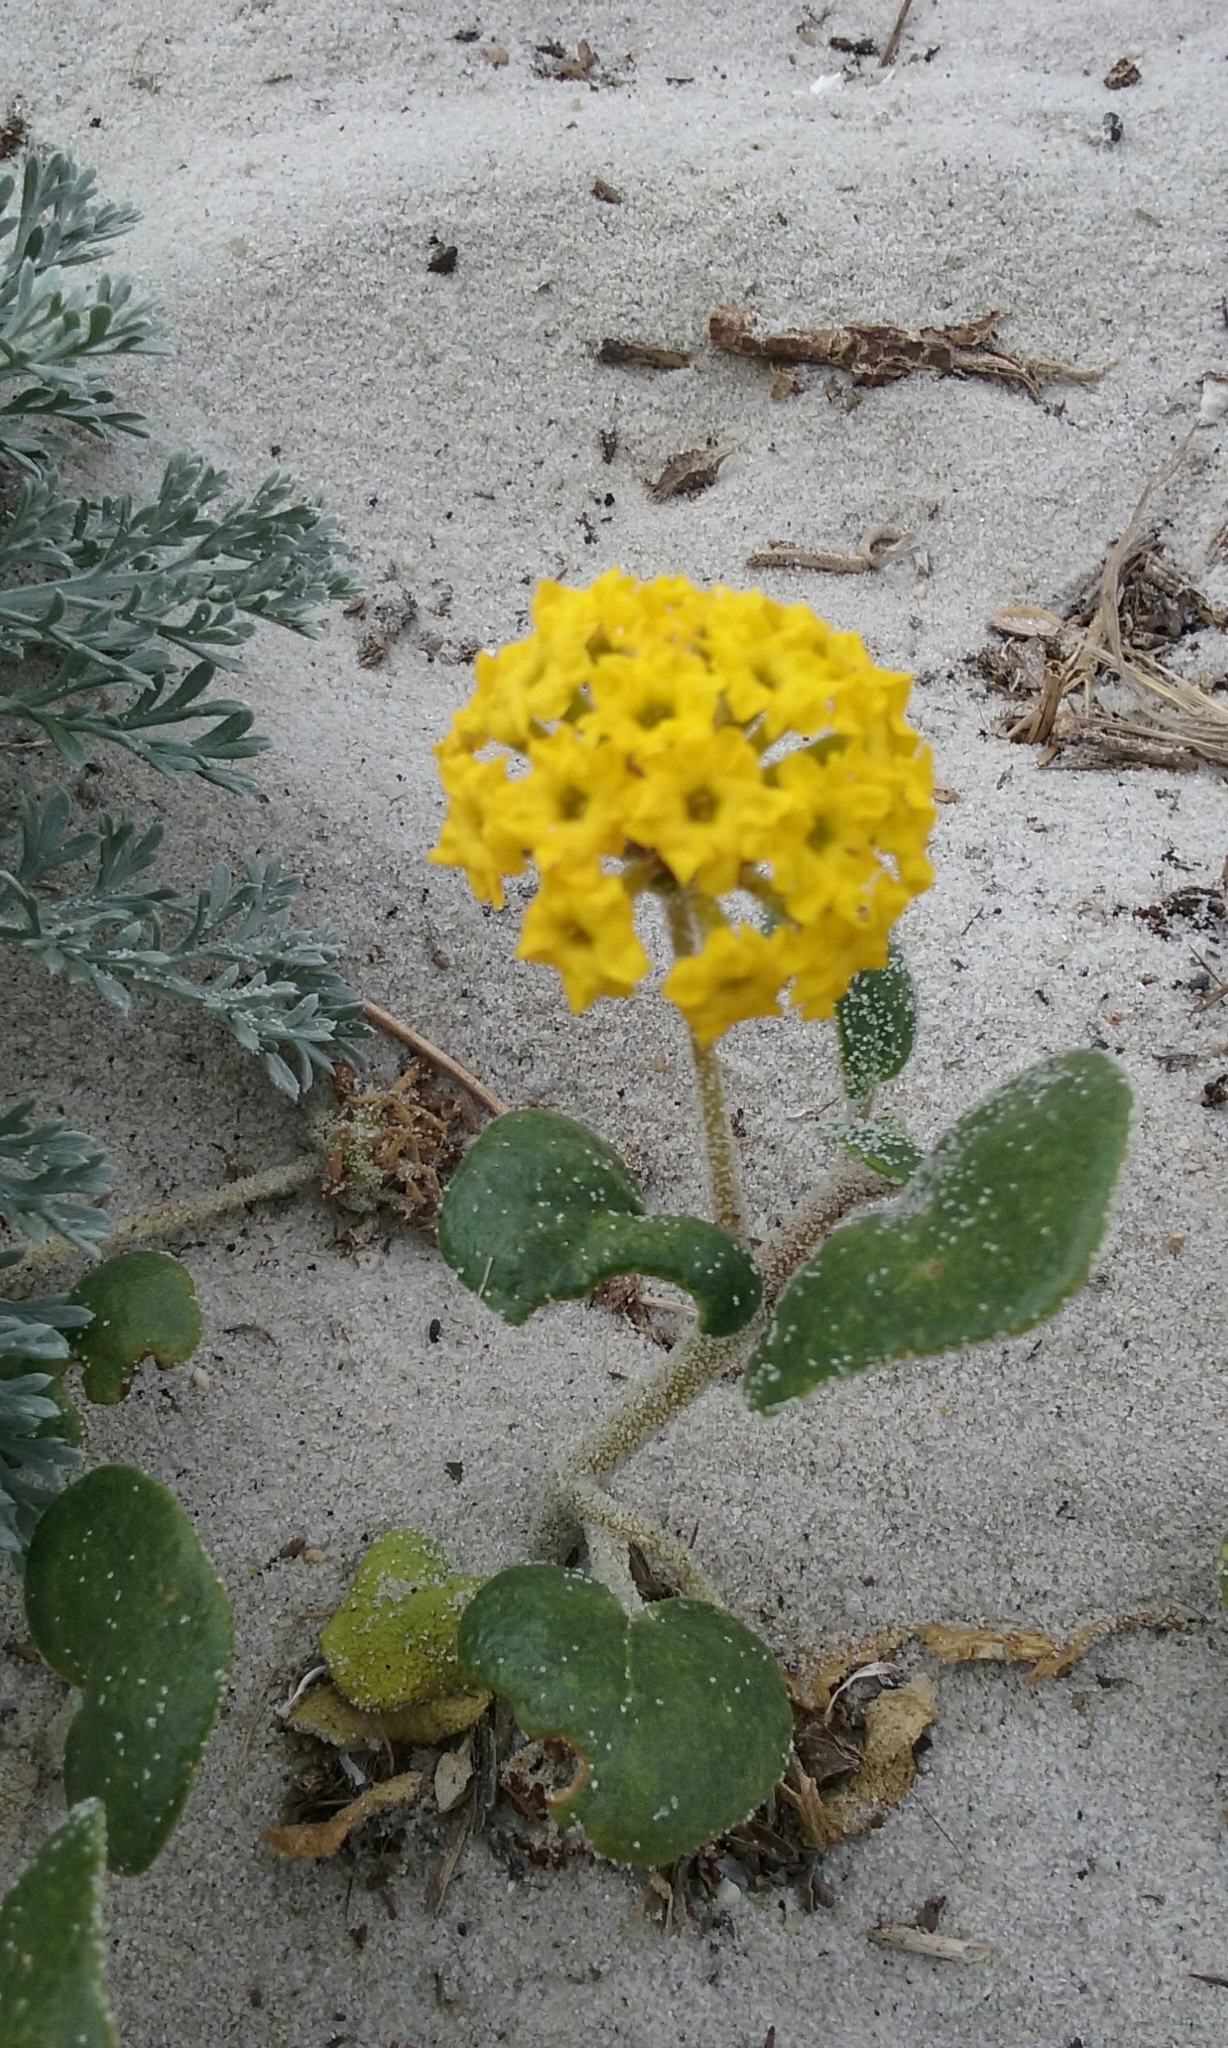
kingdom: Plantae
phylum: Tracheophyta
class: Magnoliopsida
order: Caryophyllales
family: Nyctaginaceae
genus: Abronia
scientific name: Abronia latifolia
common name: Yellow sand-verbena
